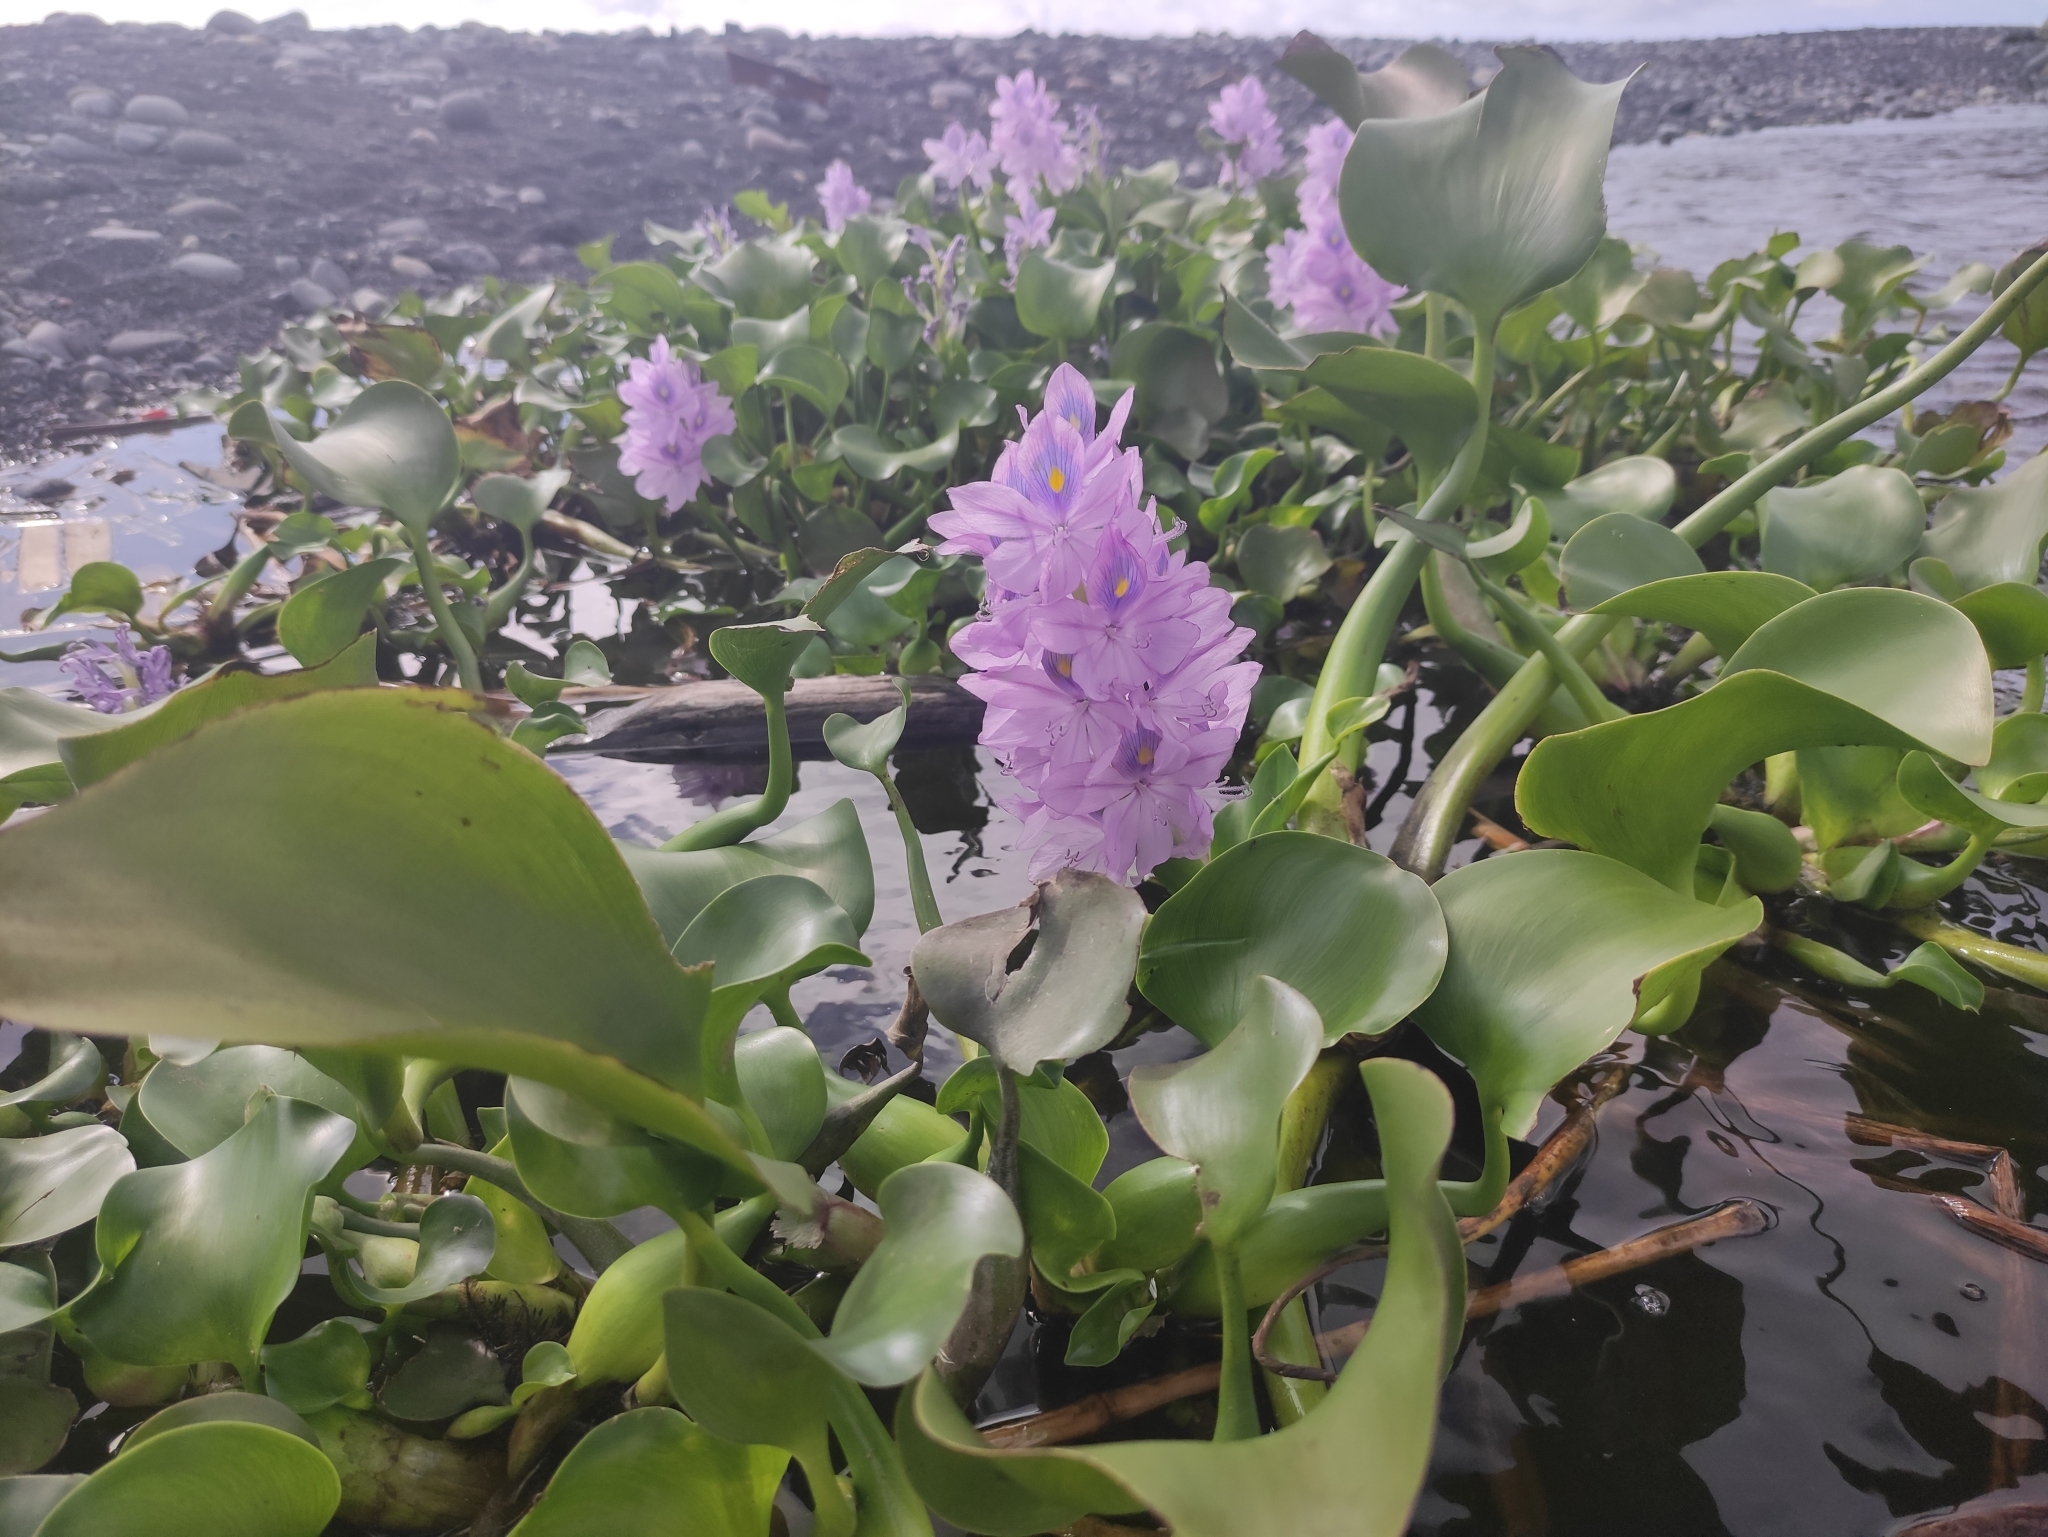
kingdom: Plantae
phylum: Tracheophyta
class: Liliopsida
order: Commelinales
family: Pontederiaceae
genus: Pontederia
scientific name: Pontederia crassipes
